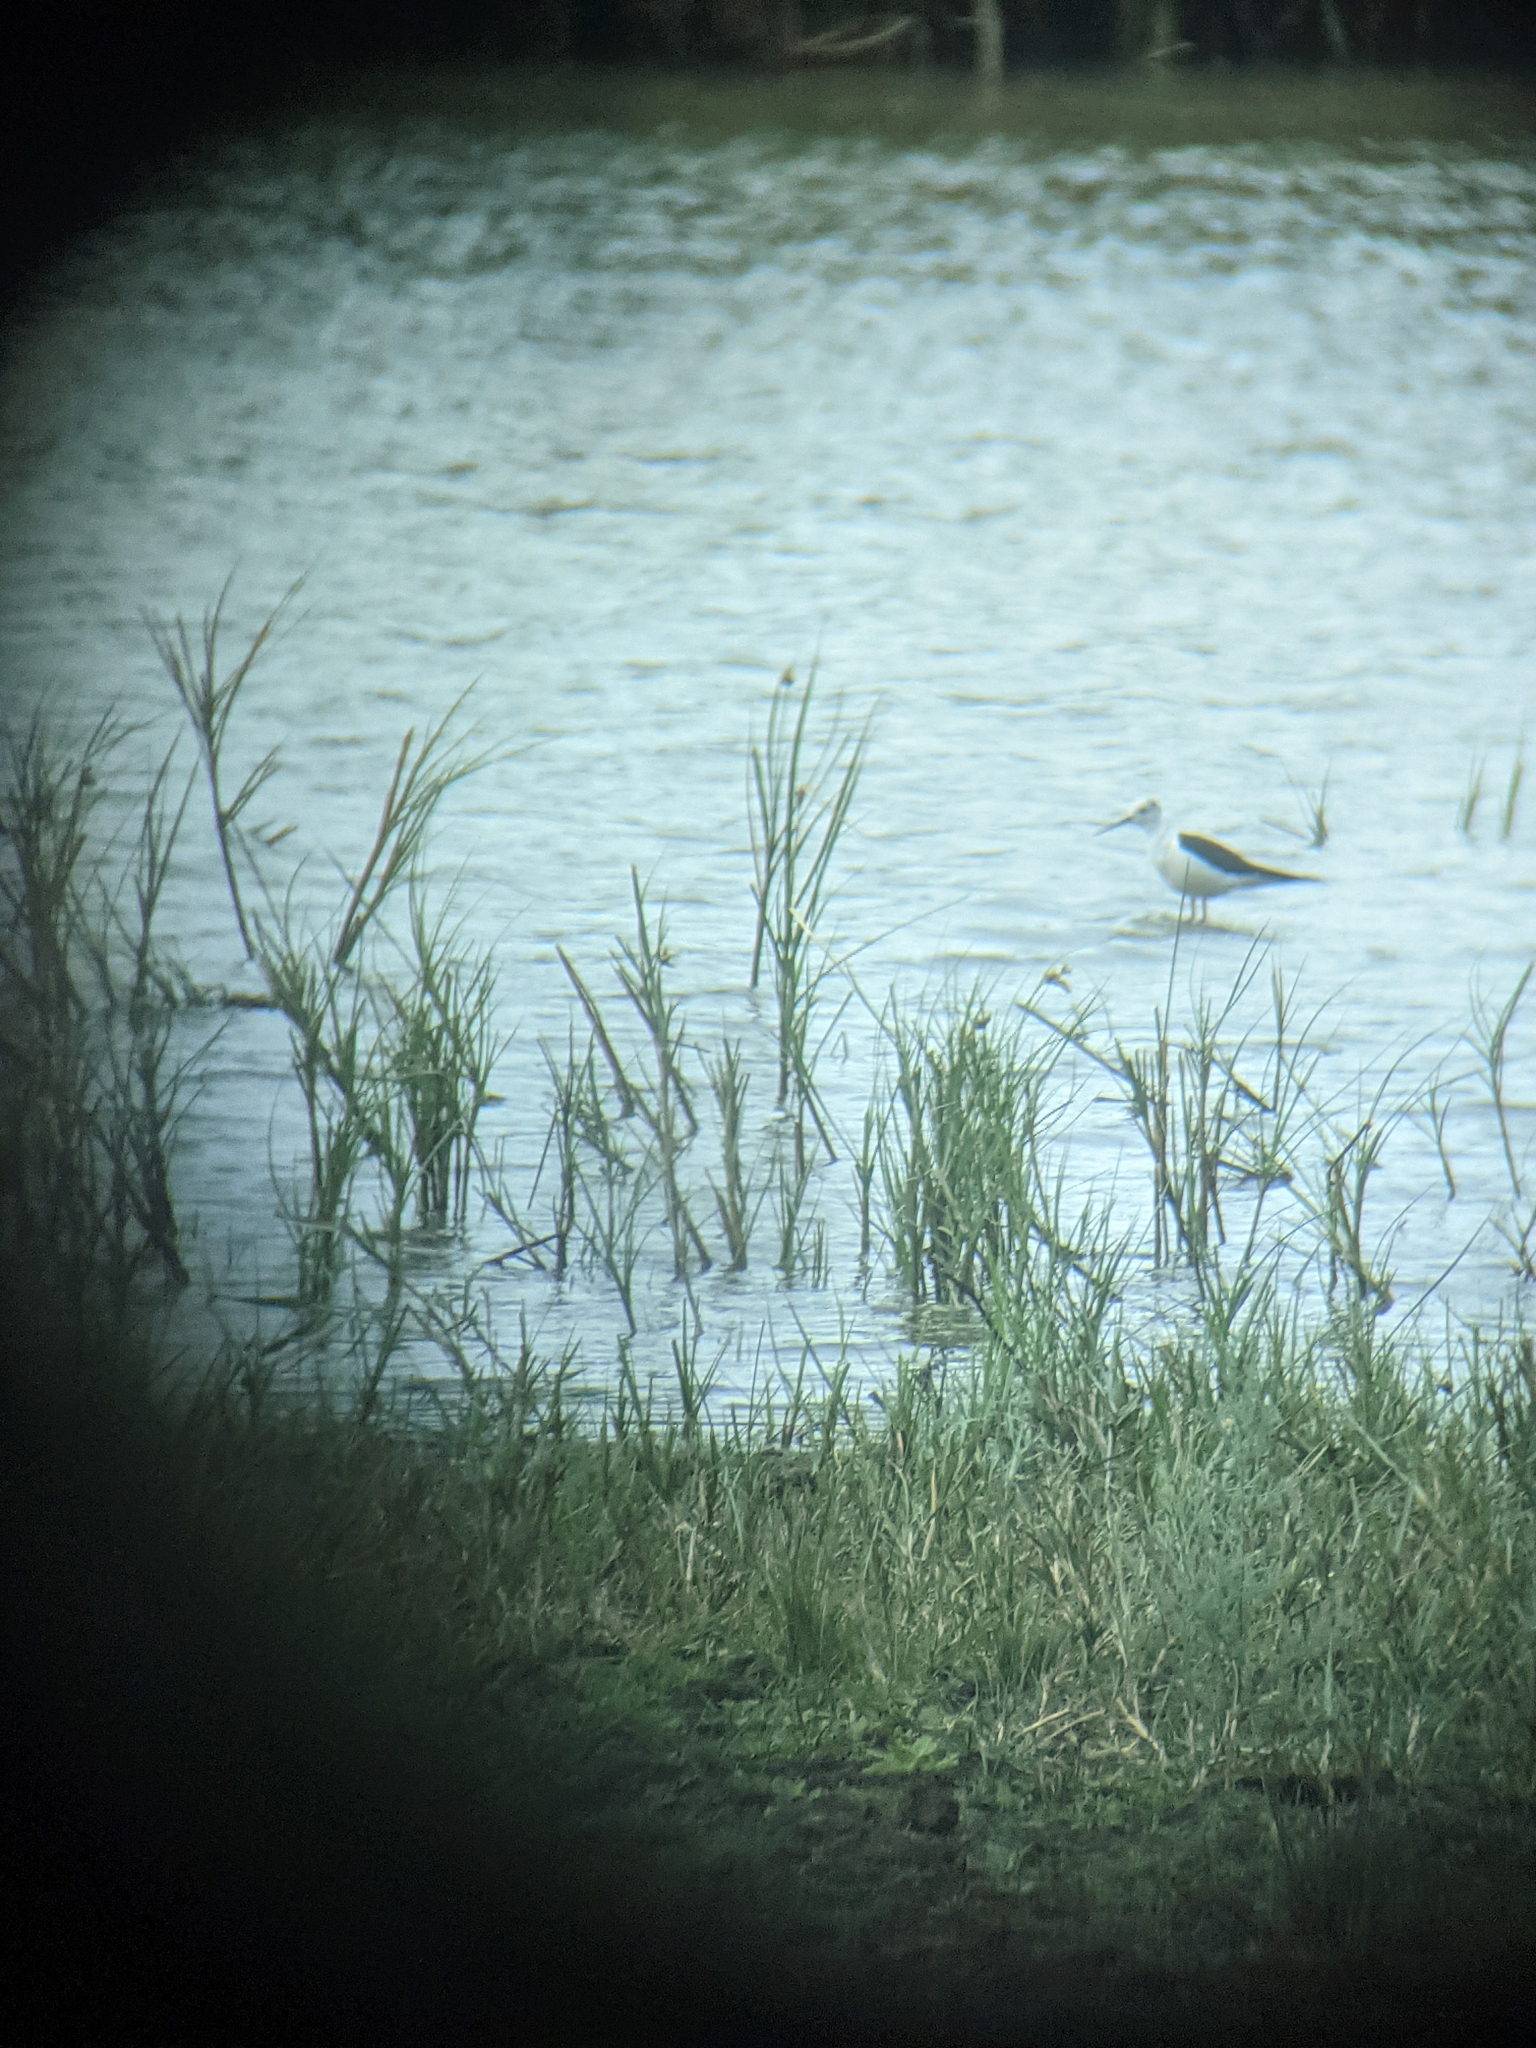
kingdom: Animalia
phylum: Chordata
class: Aves
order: Charadriiformes
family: Recurvirostridae
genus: Himantopus
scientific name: Himantopus himantopus
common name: Black-winged stilt
